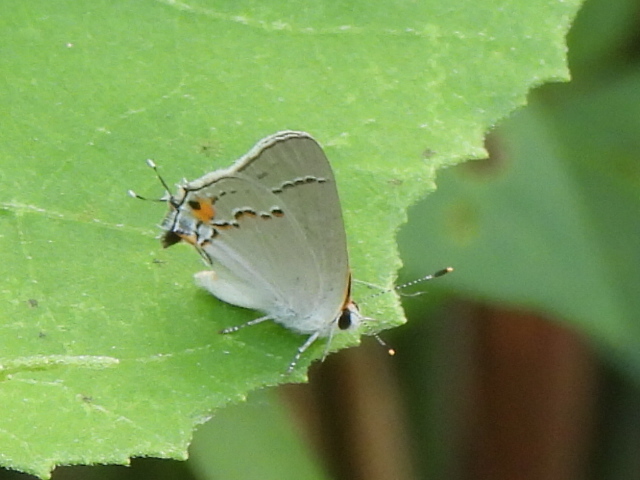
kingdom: Animalia
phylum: Arthropoda
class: Insecta
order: Lepidoptera
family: Lycaenidae
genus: Strymon
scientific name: Strymon melinus
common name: Gray hairstreak
